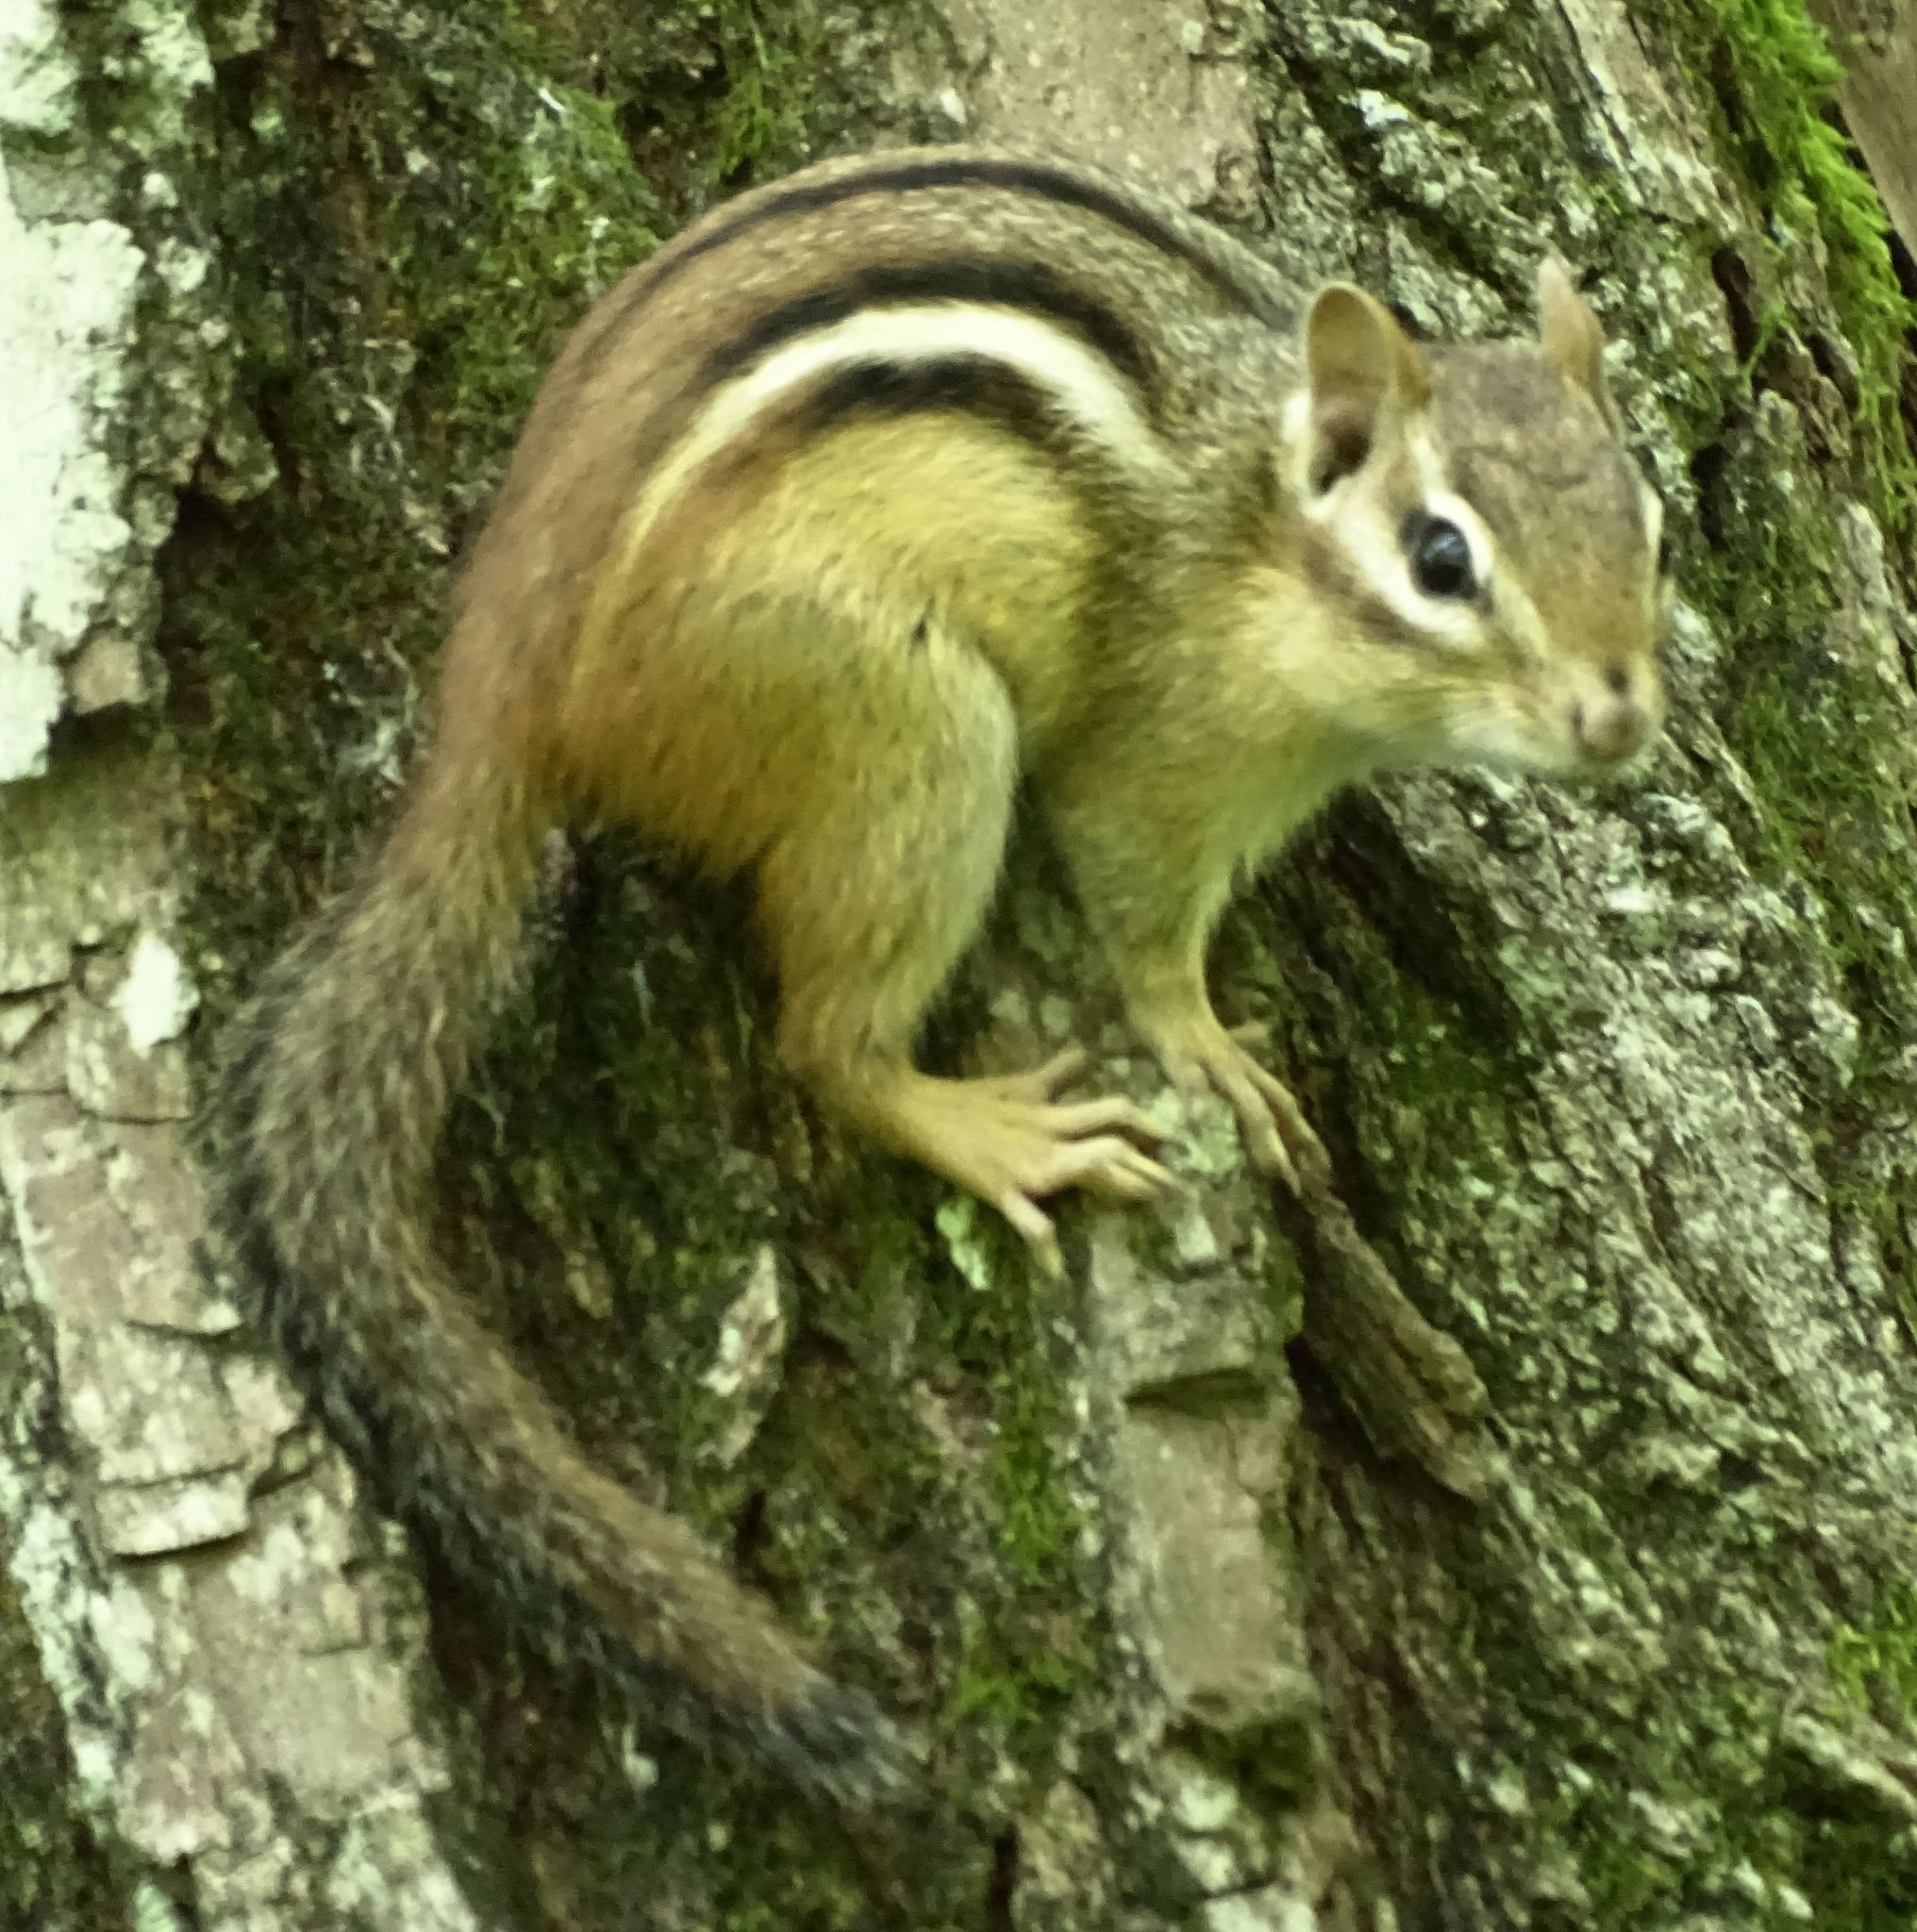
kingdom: Animalia
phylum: Chordata
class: Mammalia
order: Rodentia
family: Sciuridae
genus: Tamias
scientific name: Tamias striatus
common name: Eastern chipmunk
